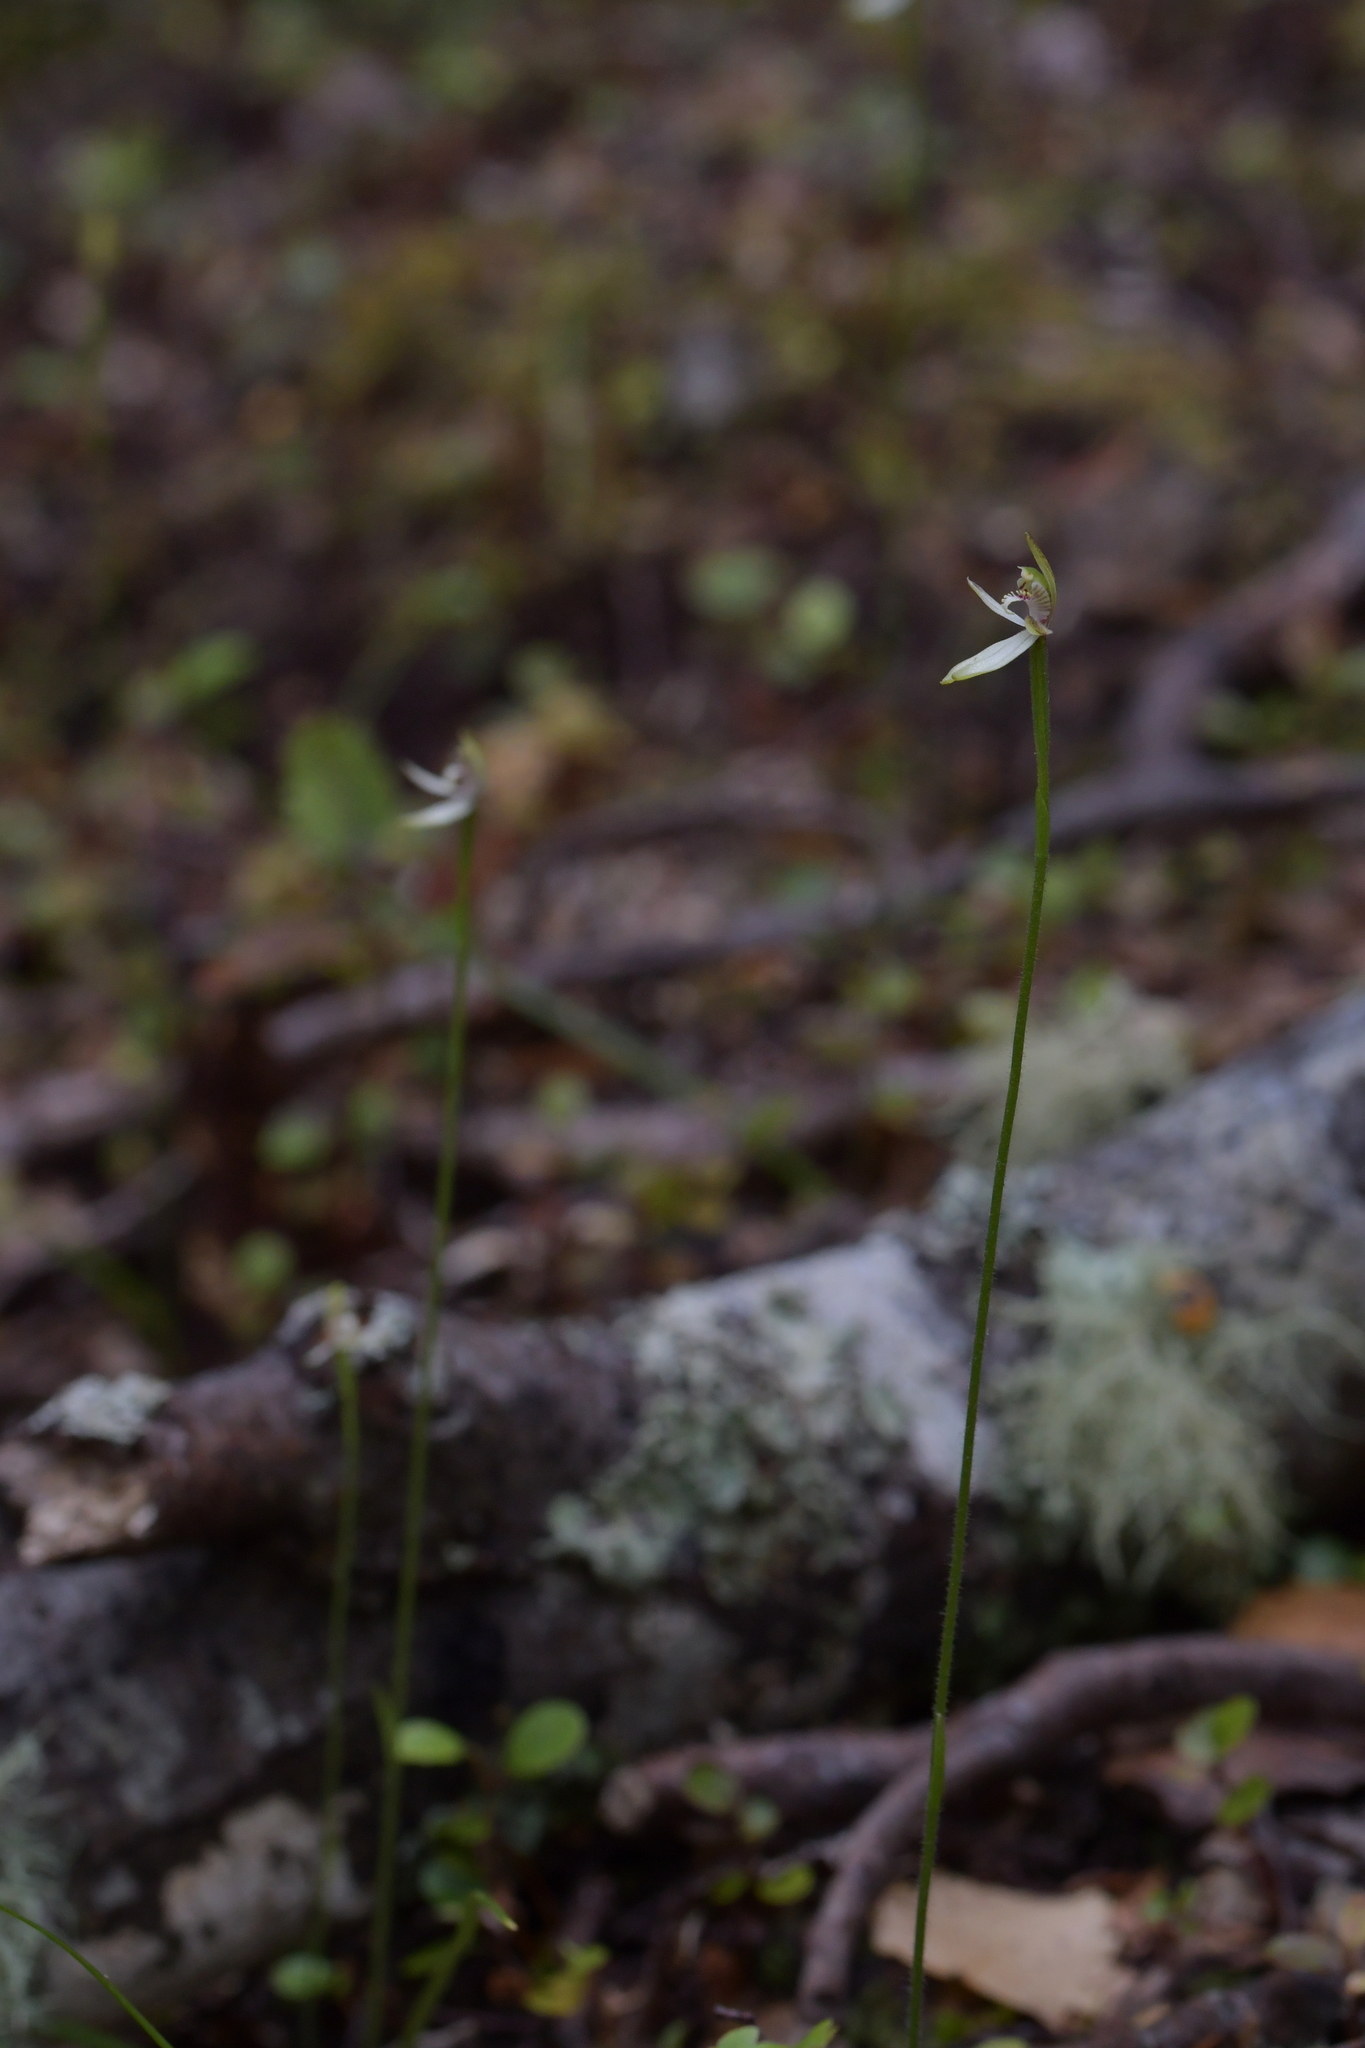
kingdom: Plantae
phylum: Tracheophyta
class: Liliopsida
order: Asparagales
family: Orchidaceae
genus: Caladenia
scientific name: Caladenia chlorostyla
